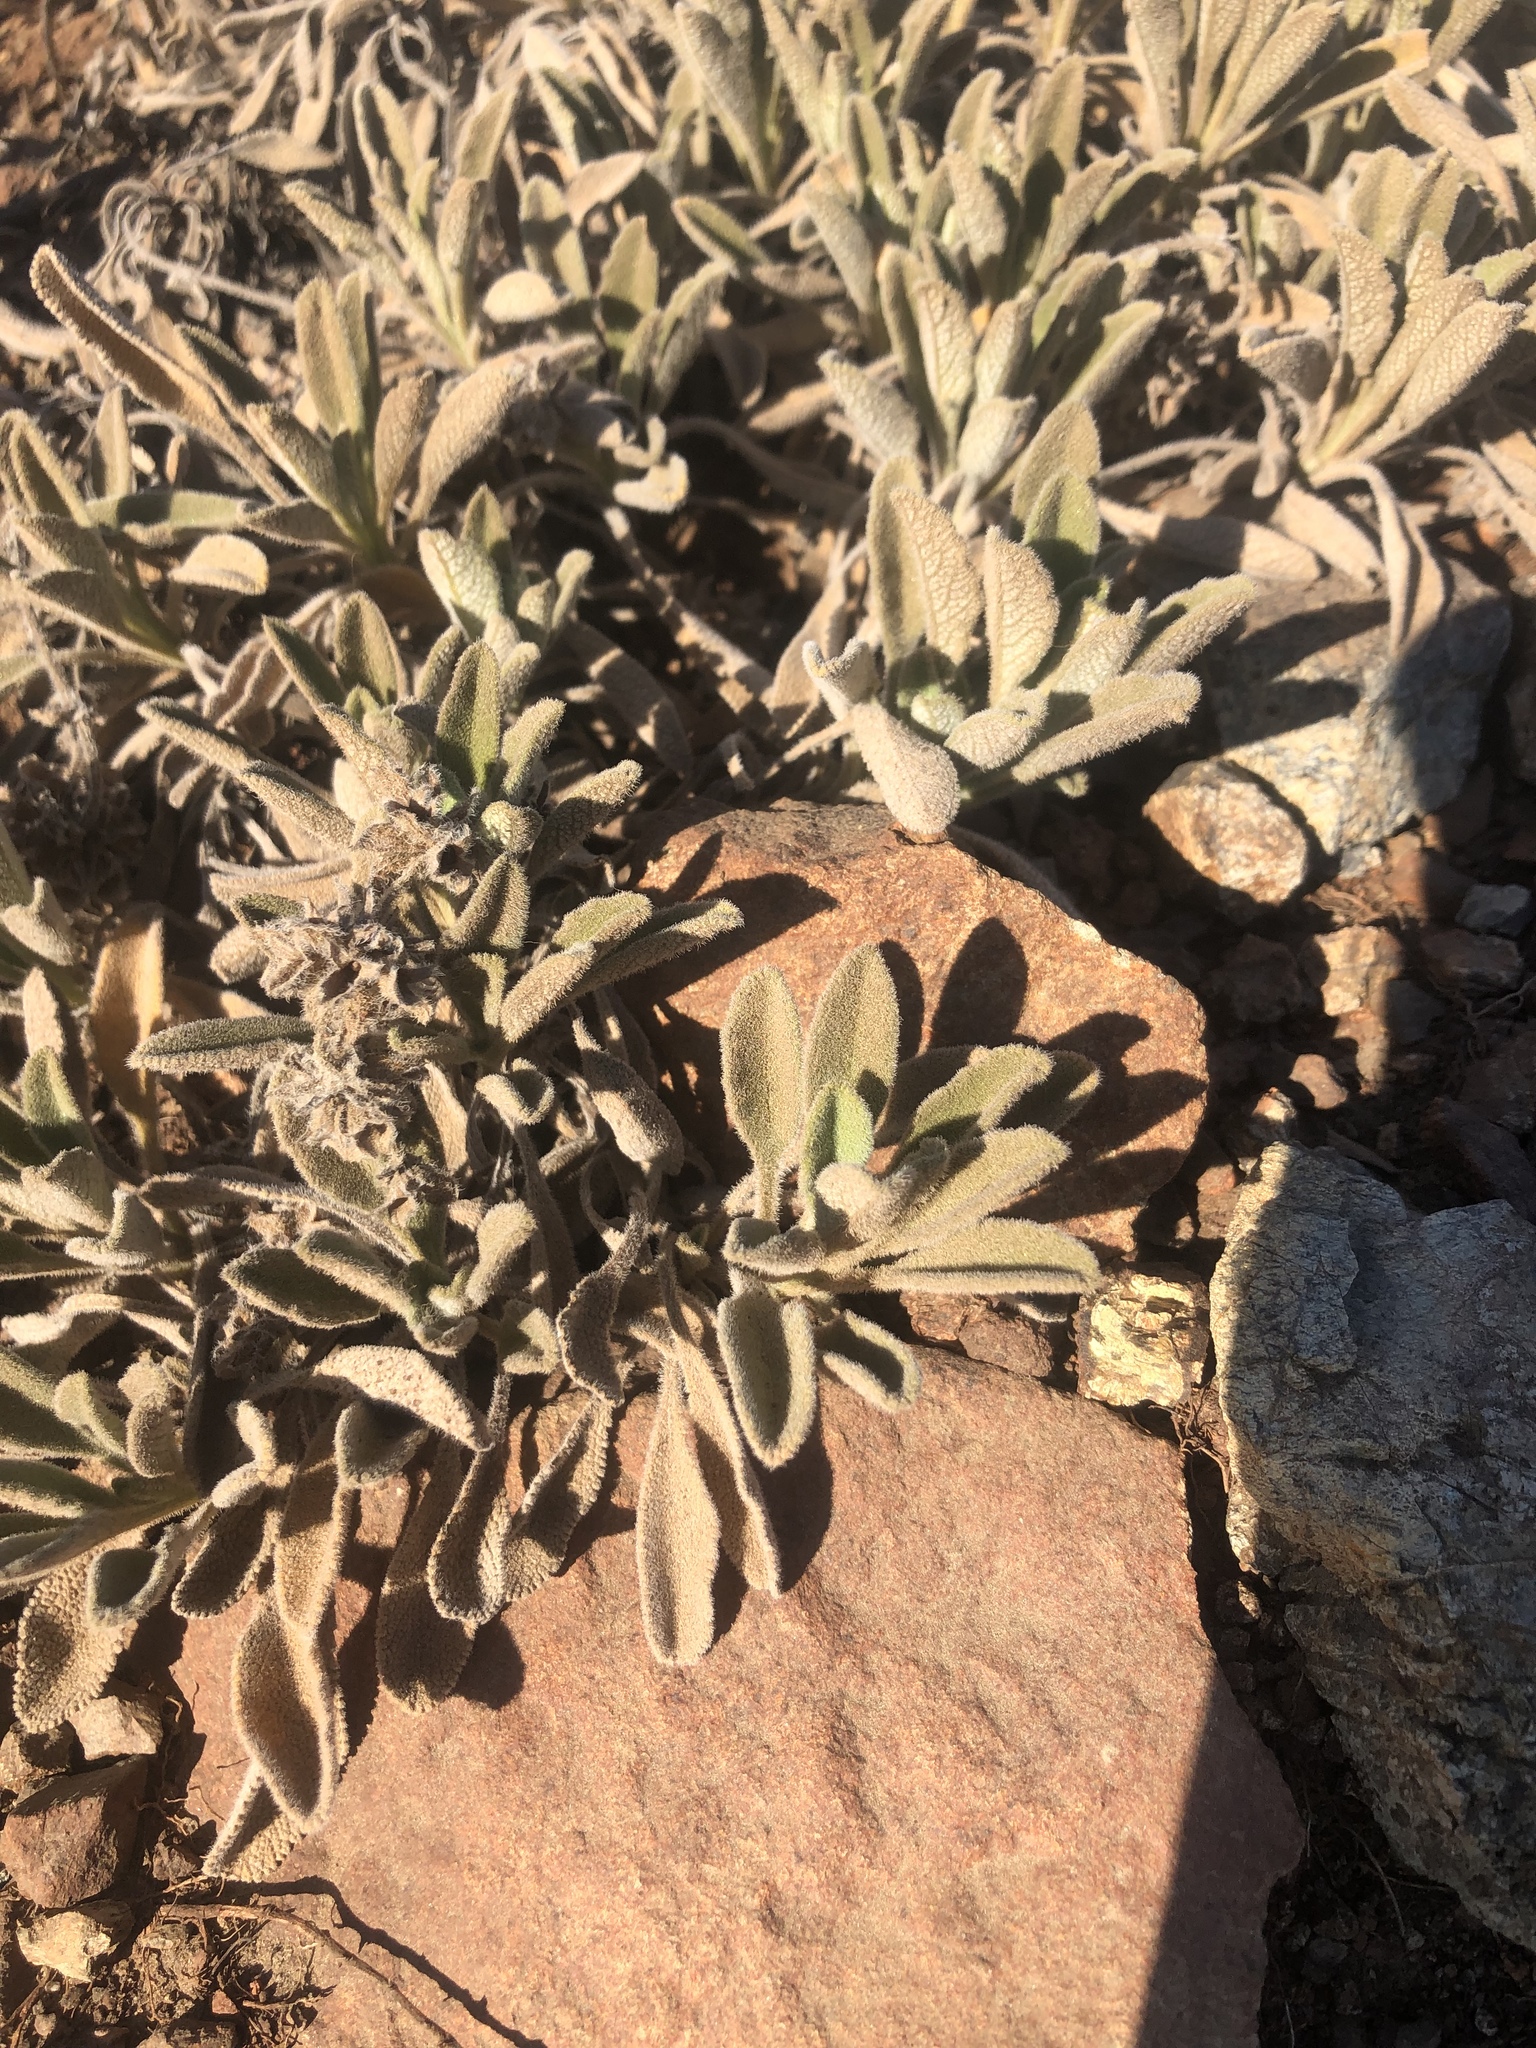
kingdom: Plantae
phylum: Tracheophyta
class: Magnoliopsida
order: Lamiales
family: Lamiaceae
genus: Salvia
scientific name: Salvia sonomensis
